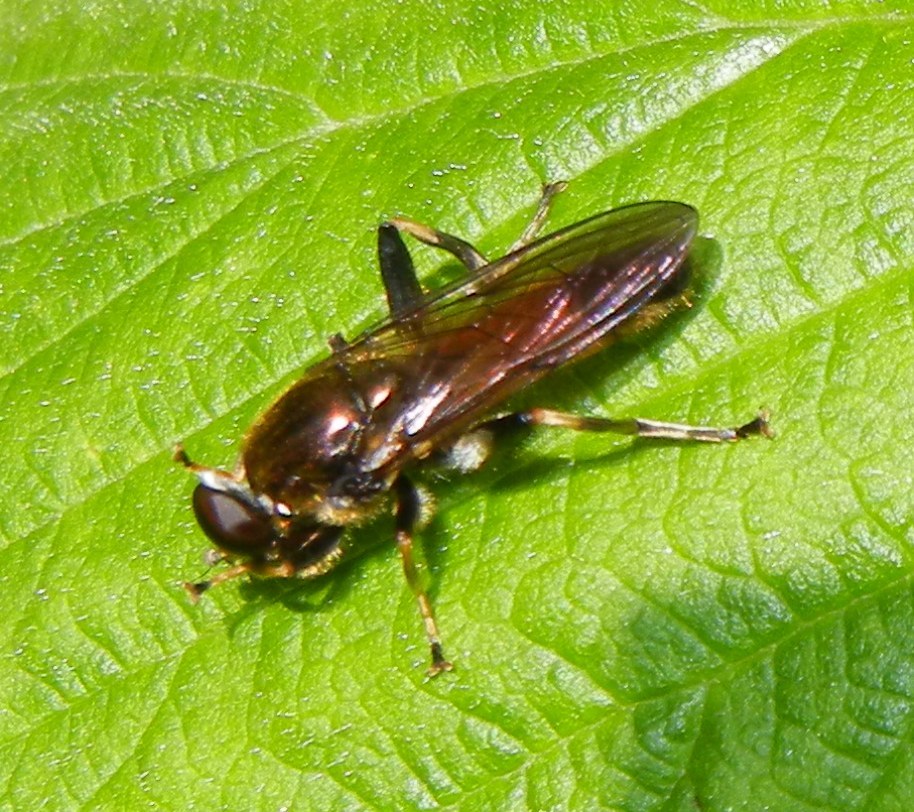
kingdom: Animalia
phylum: Arthropoda
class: Insecta
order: Diptera
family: Syrphidae
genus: Xylota
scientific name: Xylota segnis
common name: Brown-toed forest fly
